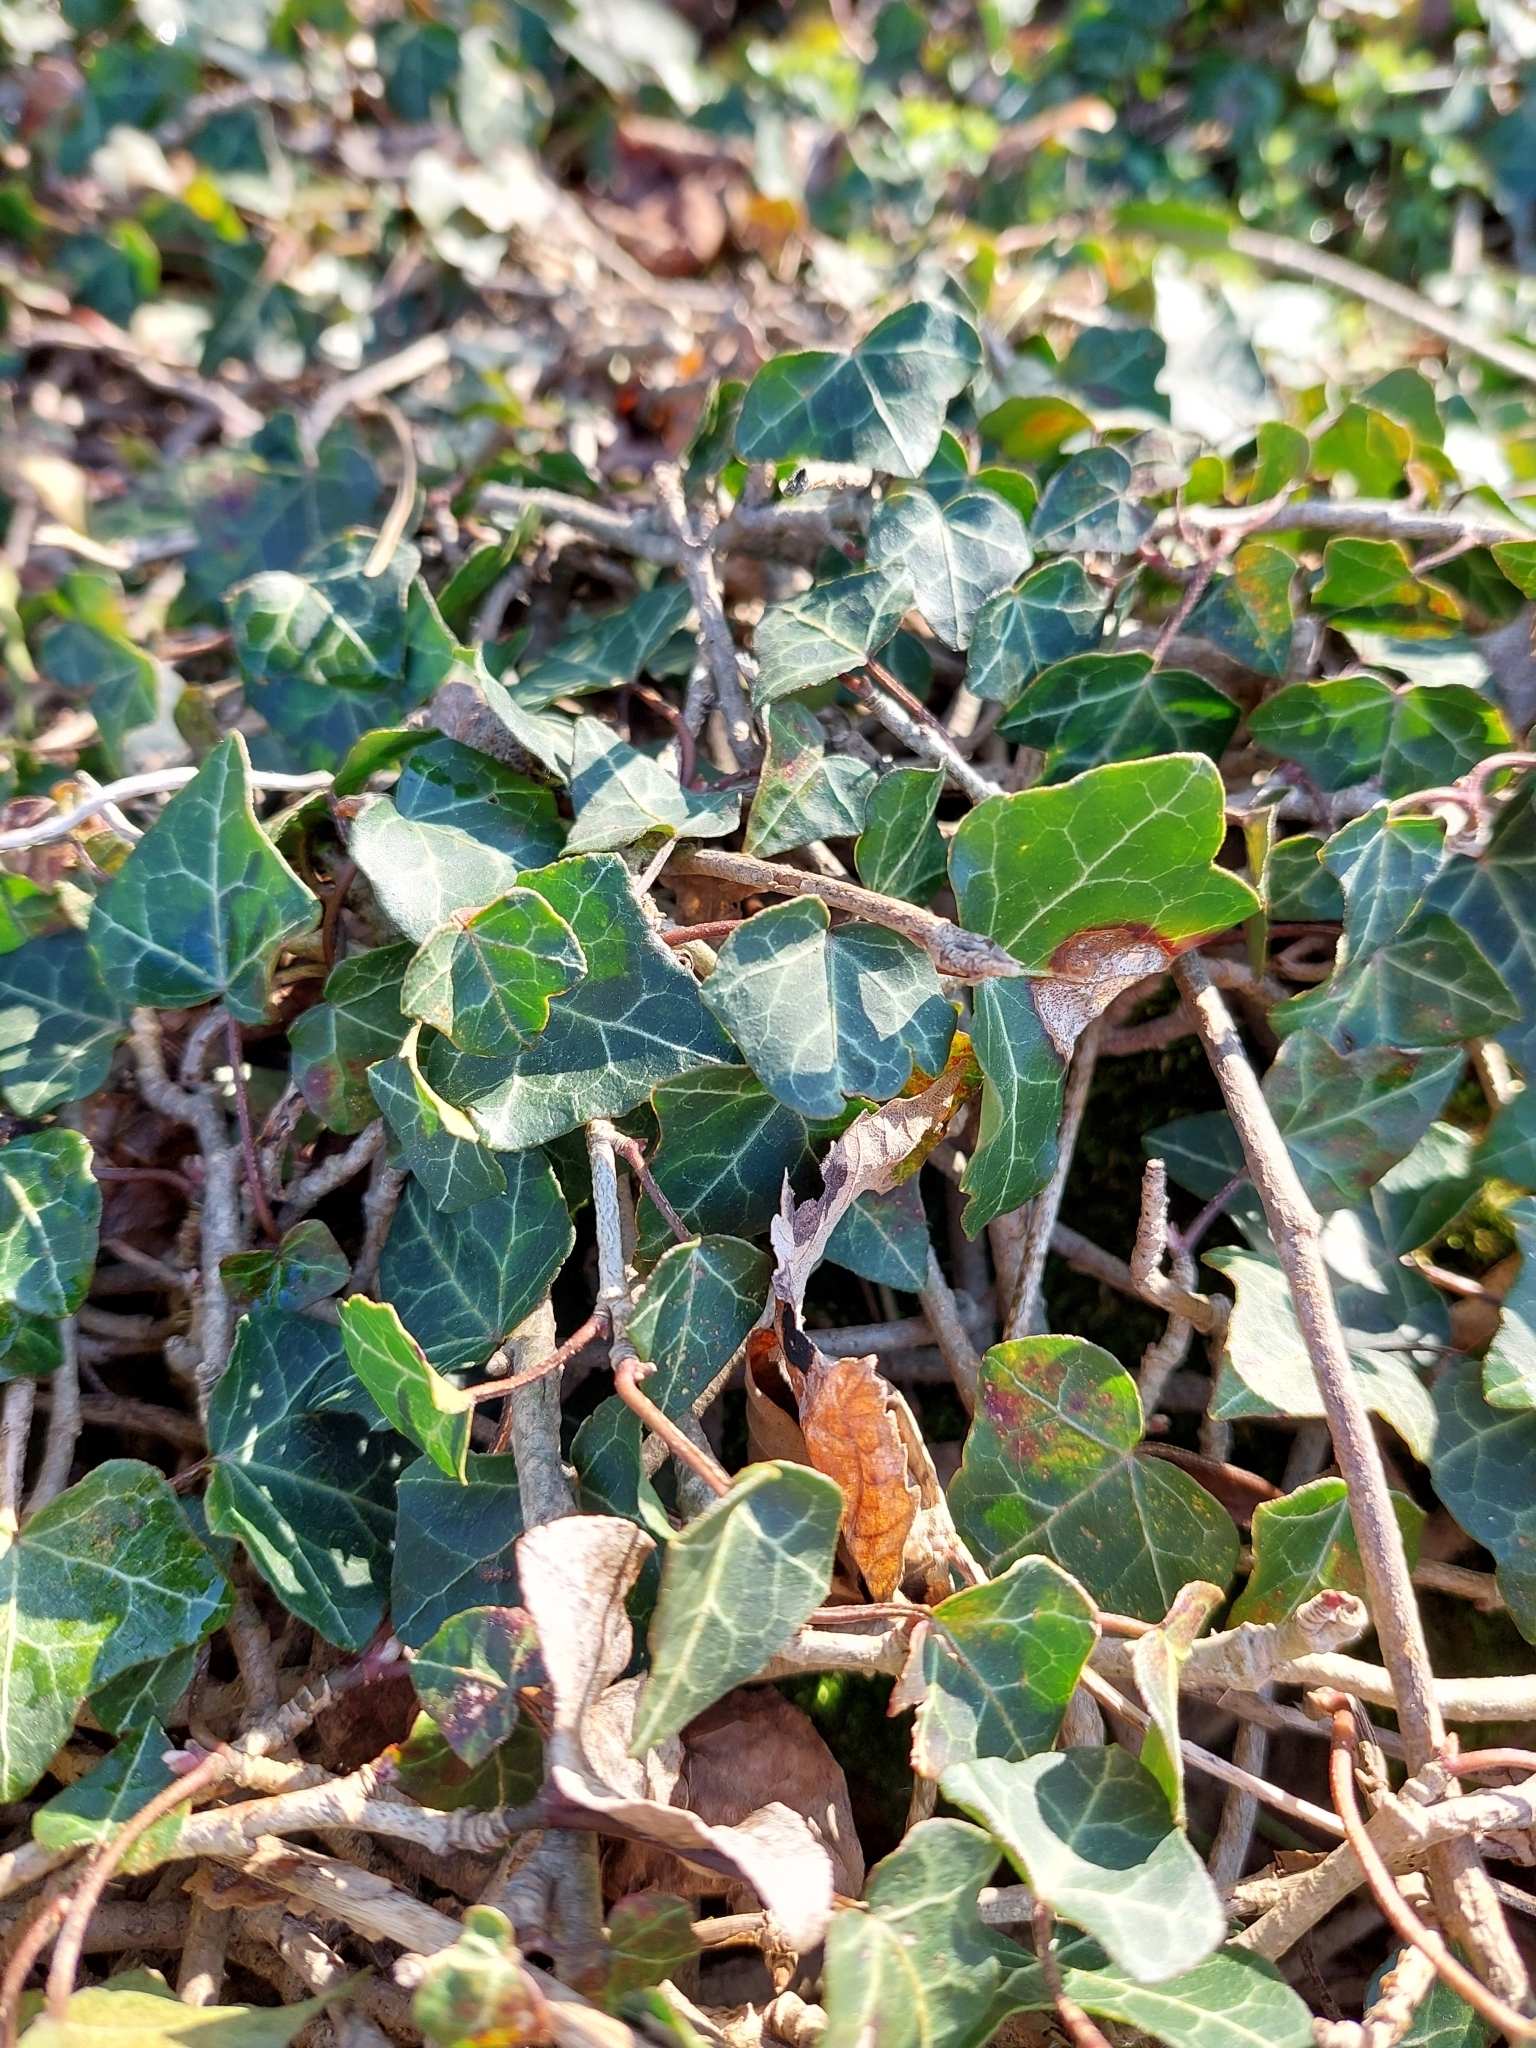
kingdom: Plantae
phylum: Tracheophyta
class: Magnoliopsida
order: Apiales
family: Araliaceae
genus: Hedera
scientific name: Hedera helix
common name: Ivy
